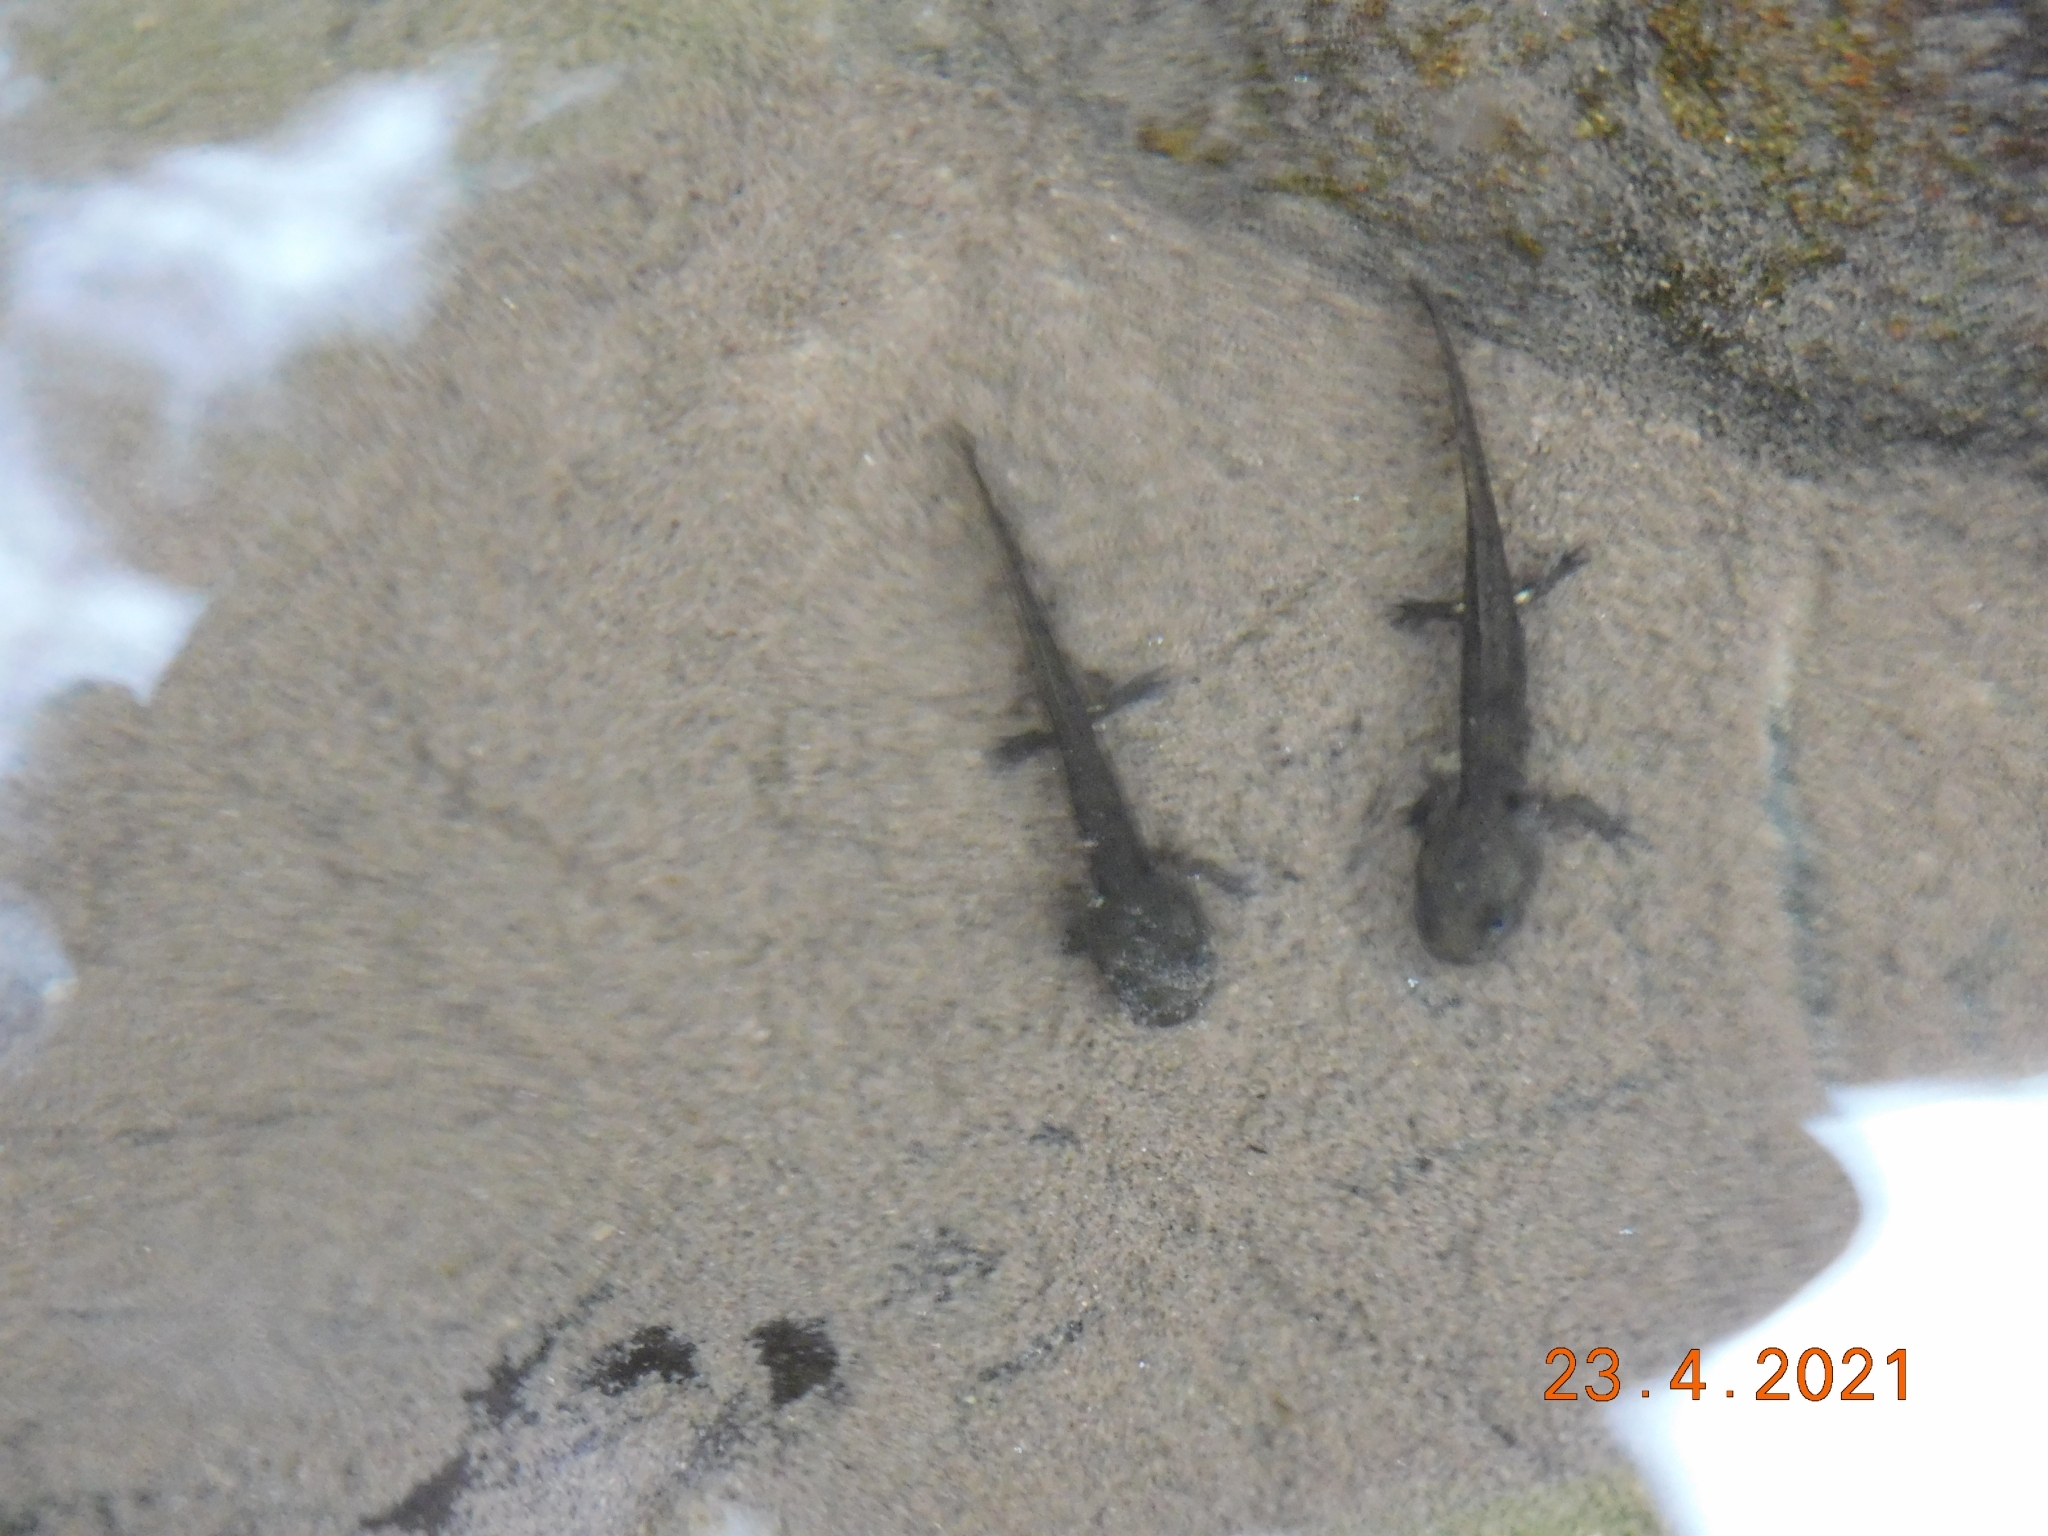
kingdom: Animalia
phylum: Chordata
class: Amphibia
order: Caudata
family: Salamandridae
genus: Salamandra
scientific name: Salamandra salamandra
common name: Fire salamander
